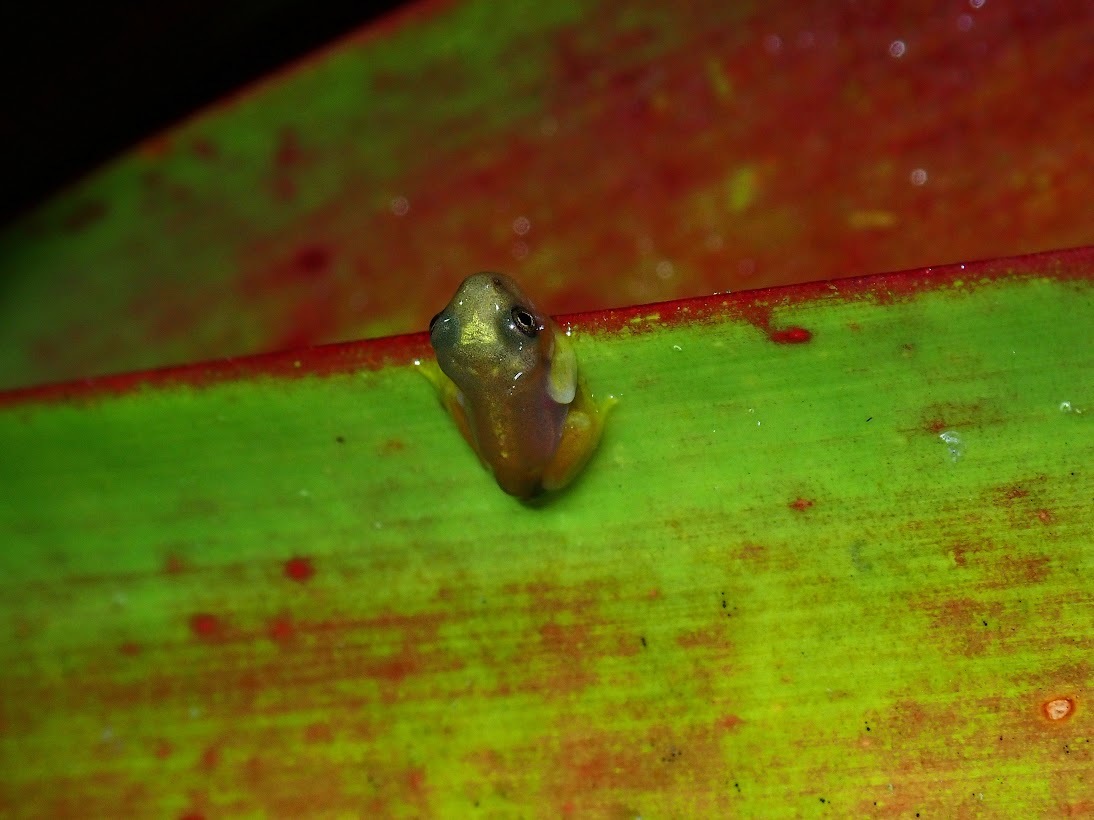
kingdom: Animalia
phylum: Chordata
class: Amphibia
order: Anura
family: Hylidae
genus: Bromeliohyla
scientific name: Bromeliohyla melacaena
